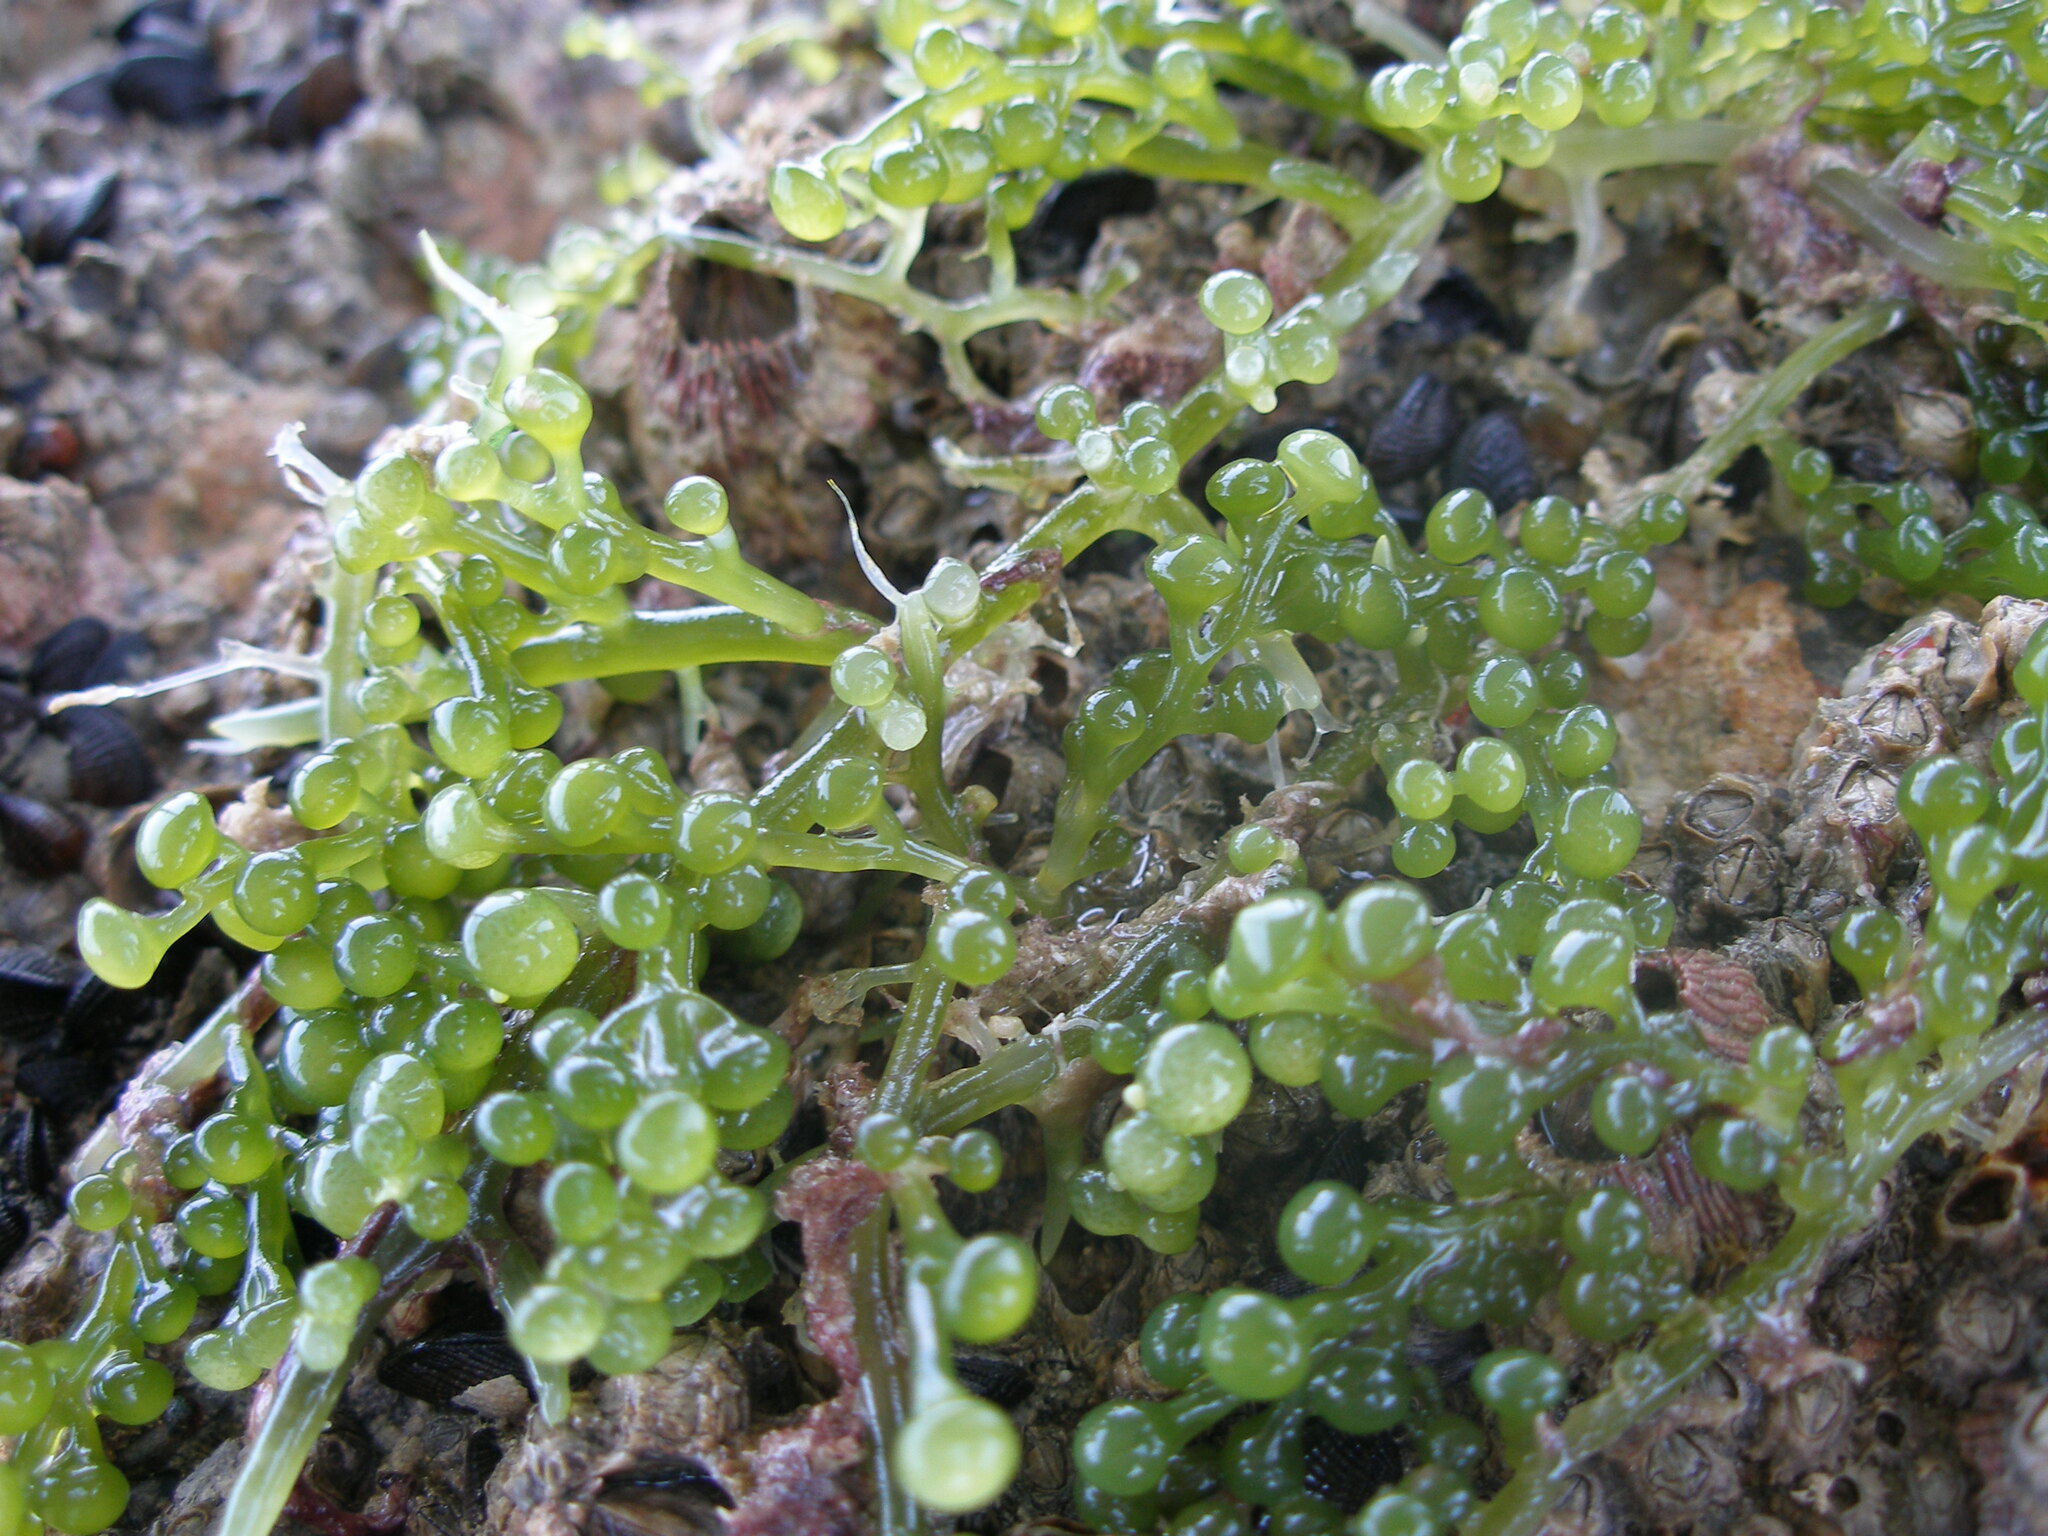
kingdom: Plantae
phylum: Chlorophyta
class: Ulvophyceae
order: Bryopsidales
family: Caulerpaceae
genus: Caulerpa
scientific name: Caulerpa racemosa
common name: Green grape algae
